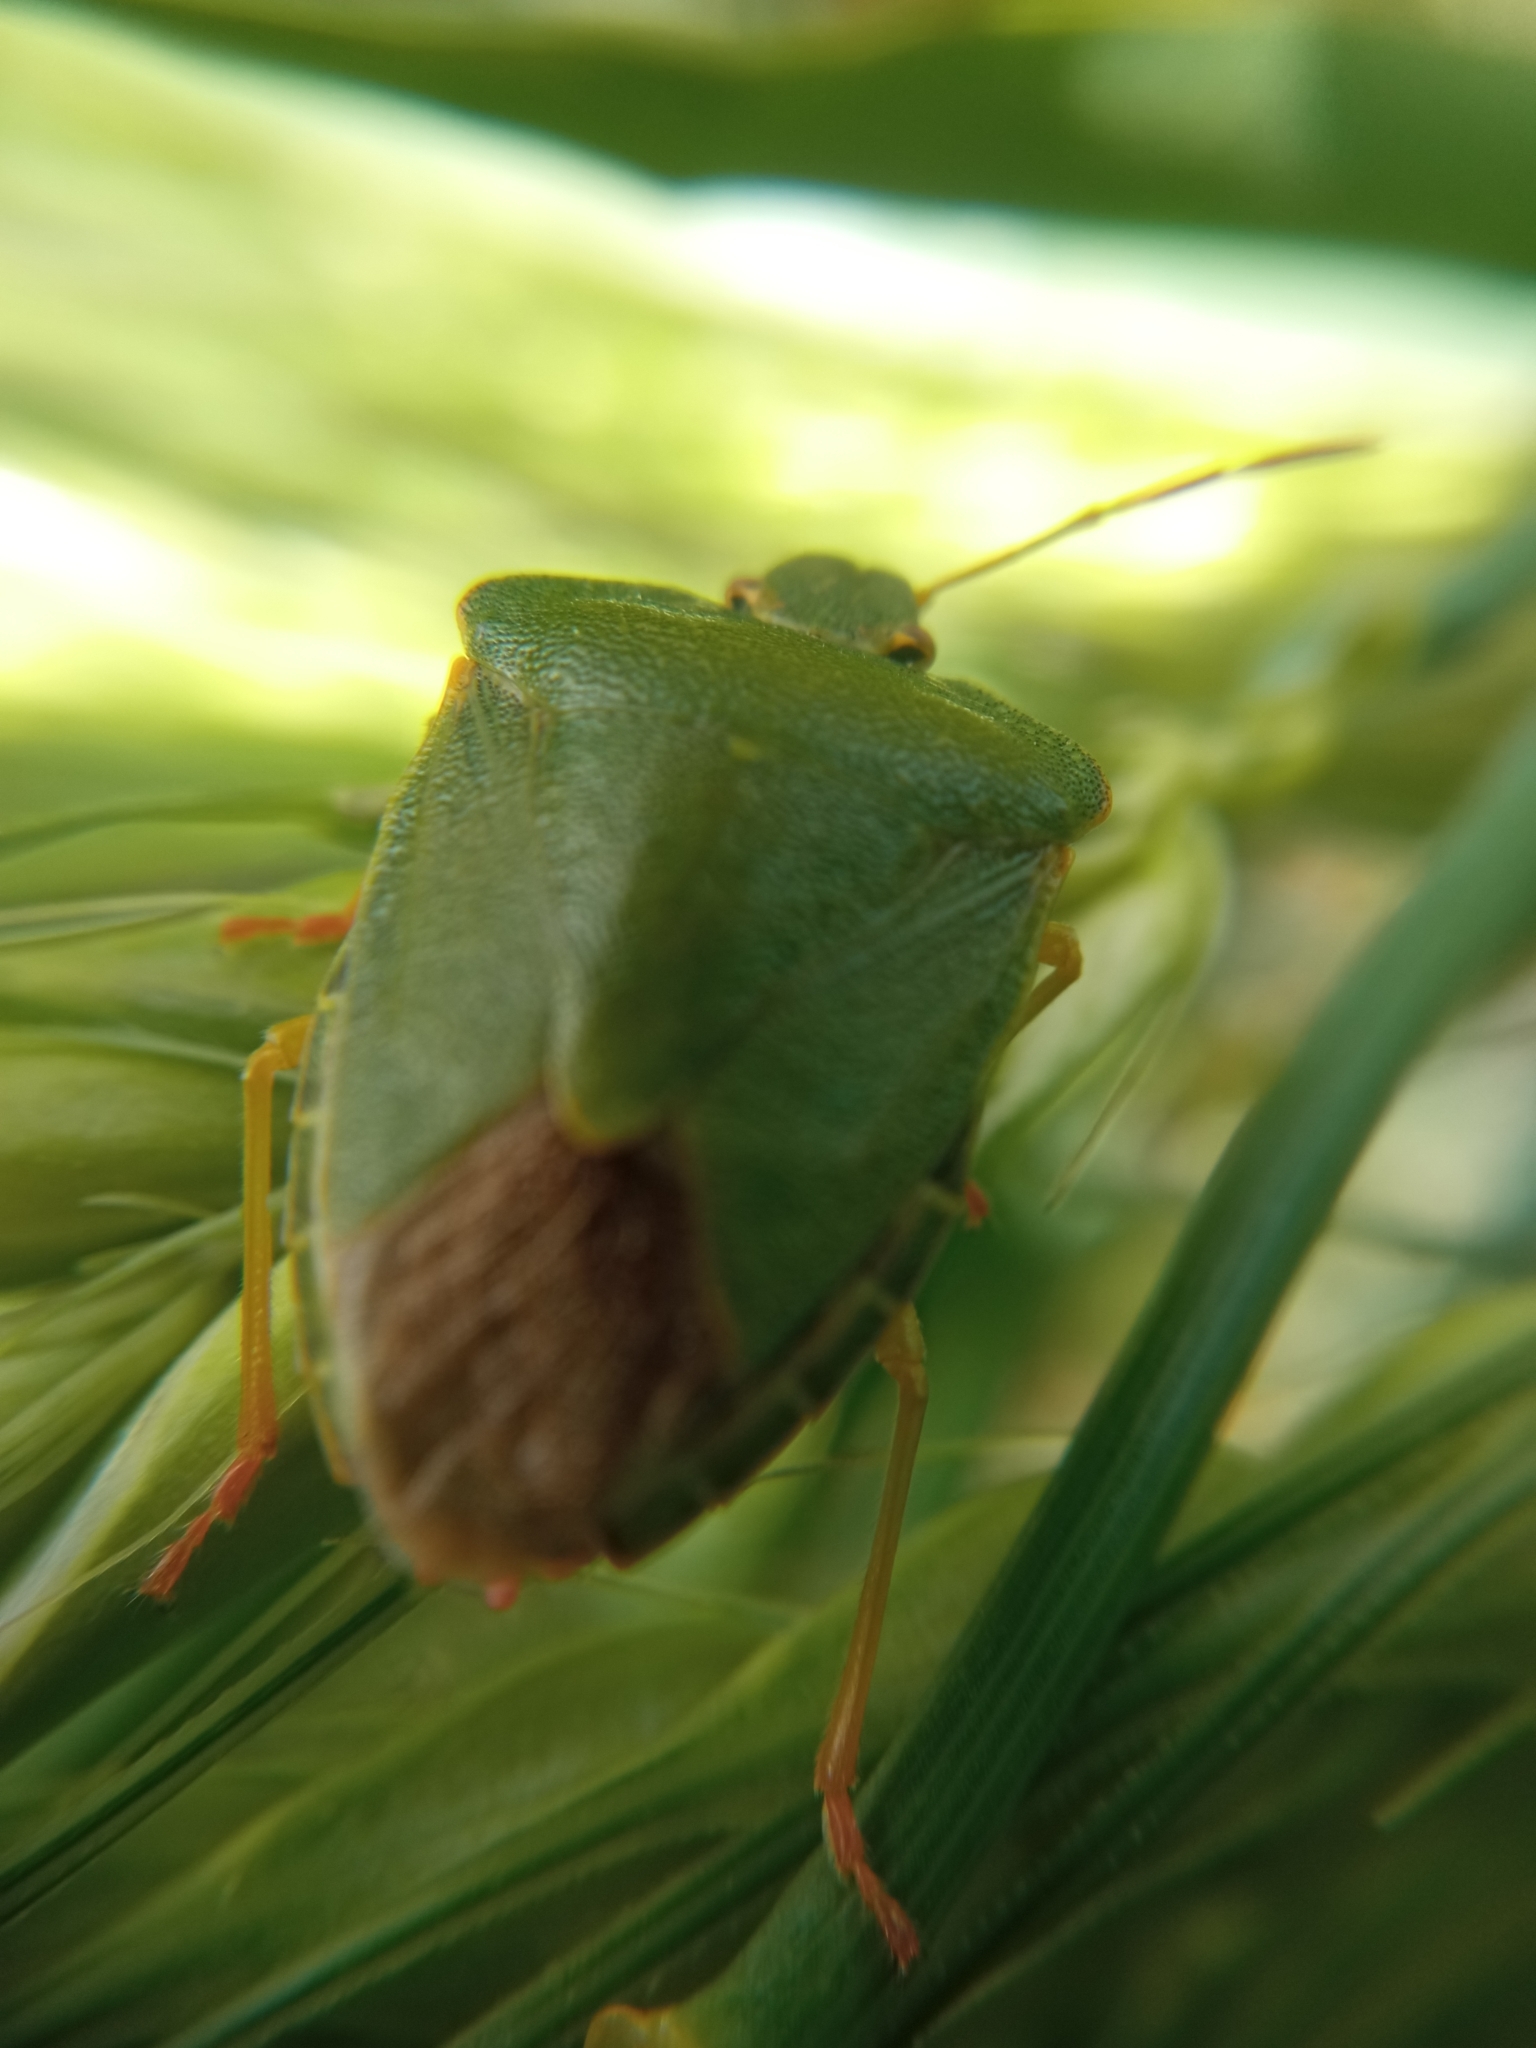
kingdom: Animalia
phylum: Arthropoda
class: Insecta
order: Hemiptera
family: Pentatomidae
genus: Palomena
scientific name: Palomena prasina
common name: Green shieldbug
